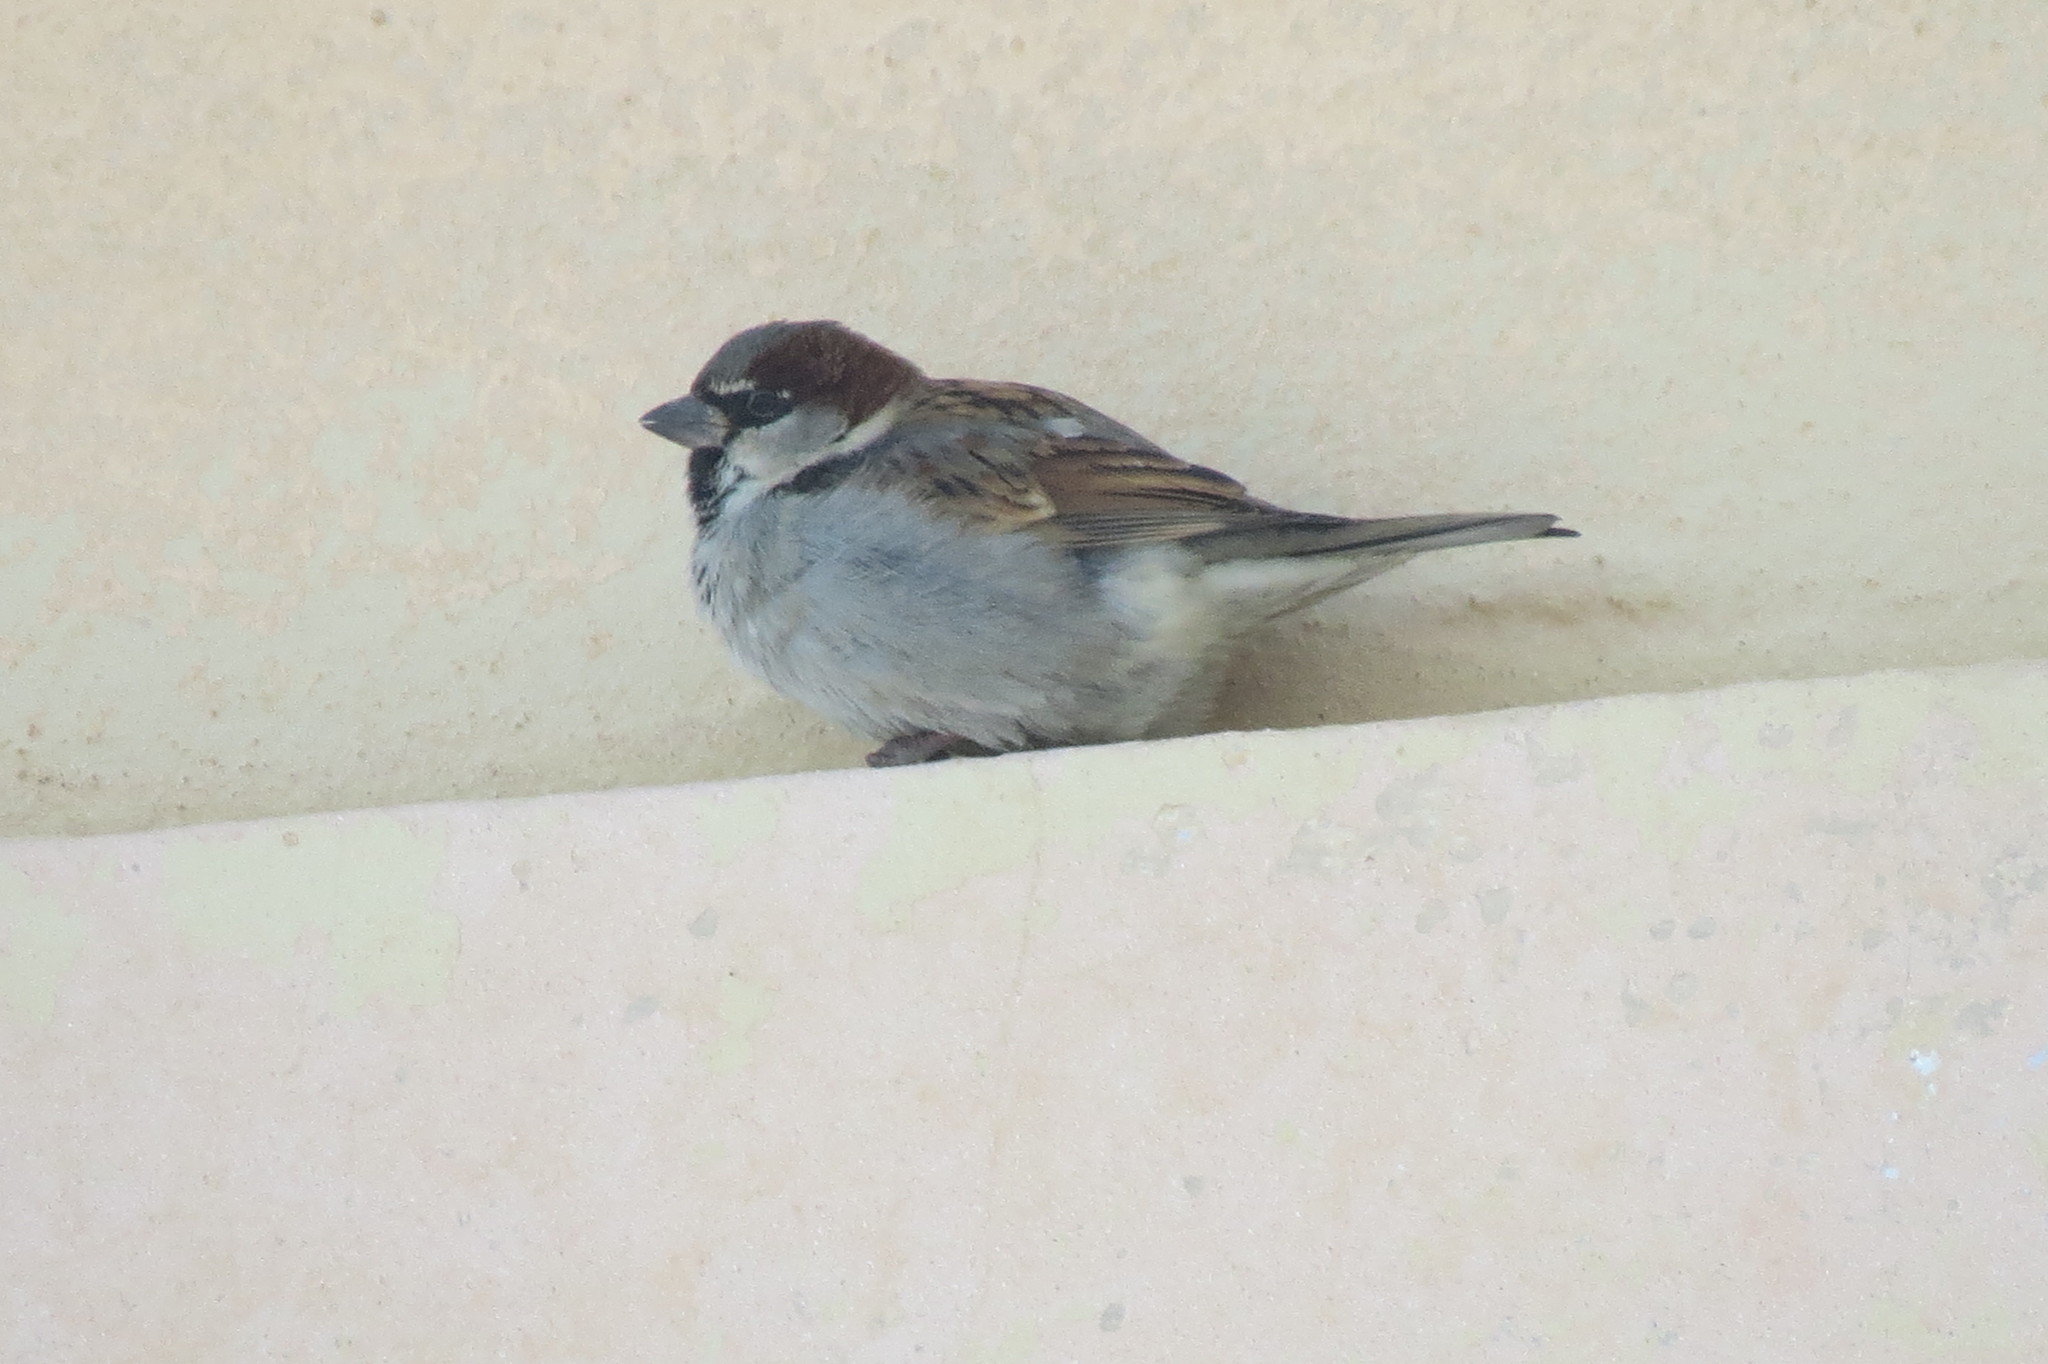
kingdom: Animalia
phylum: Chordata
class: Aves
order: Passeriformes
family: Passeridae
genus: Passer
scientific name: Passer domesticus
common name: House sparrow
